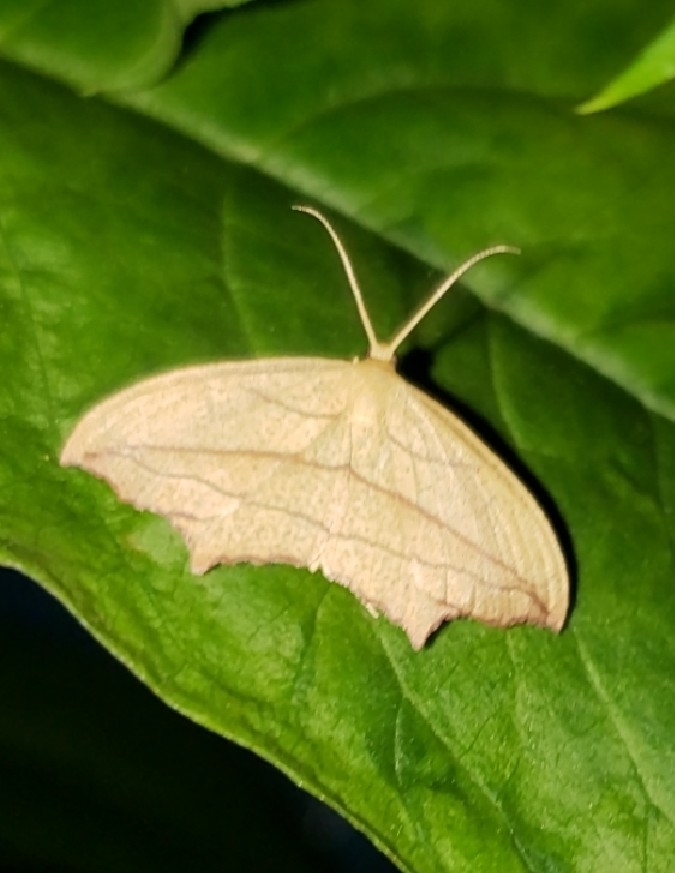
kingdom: Animalia
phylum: Arthropoda
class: Insecta
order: Lepidoptera
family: Geometridae
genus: Timandra
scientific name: Timandra amaturaria
